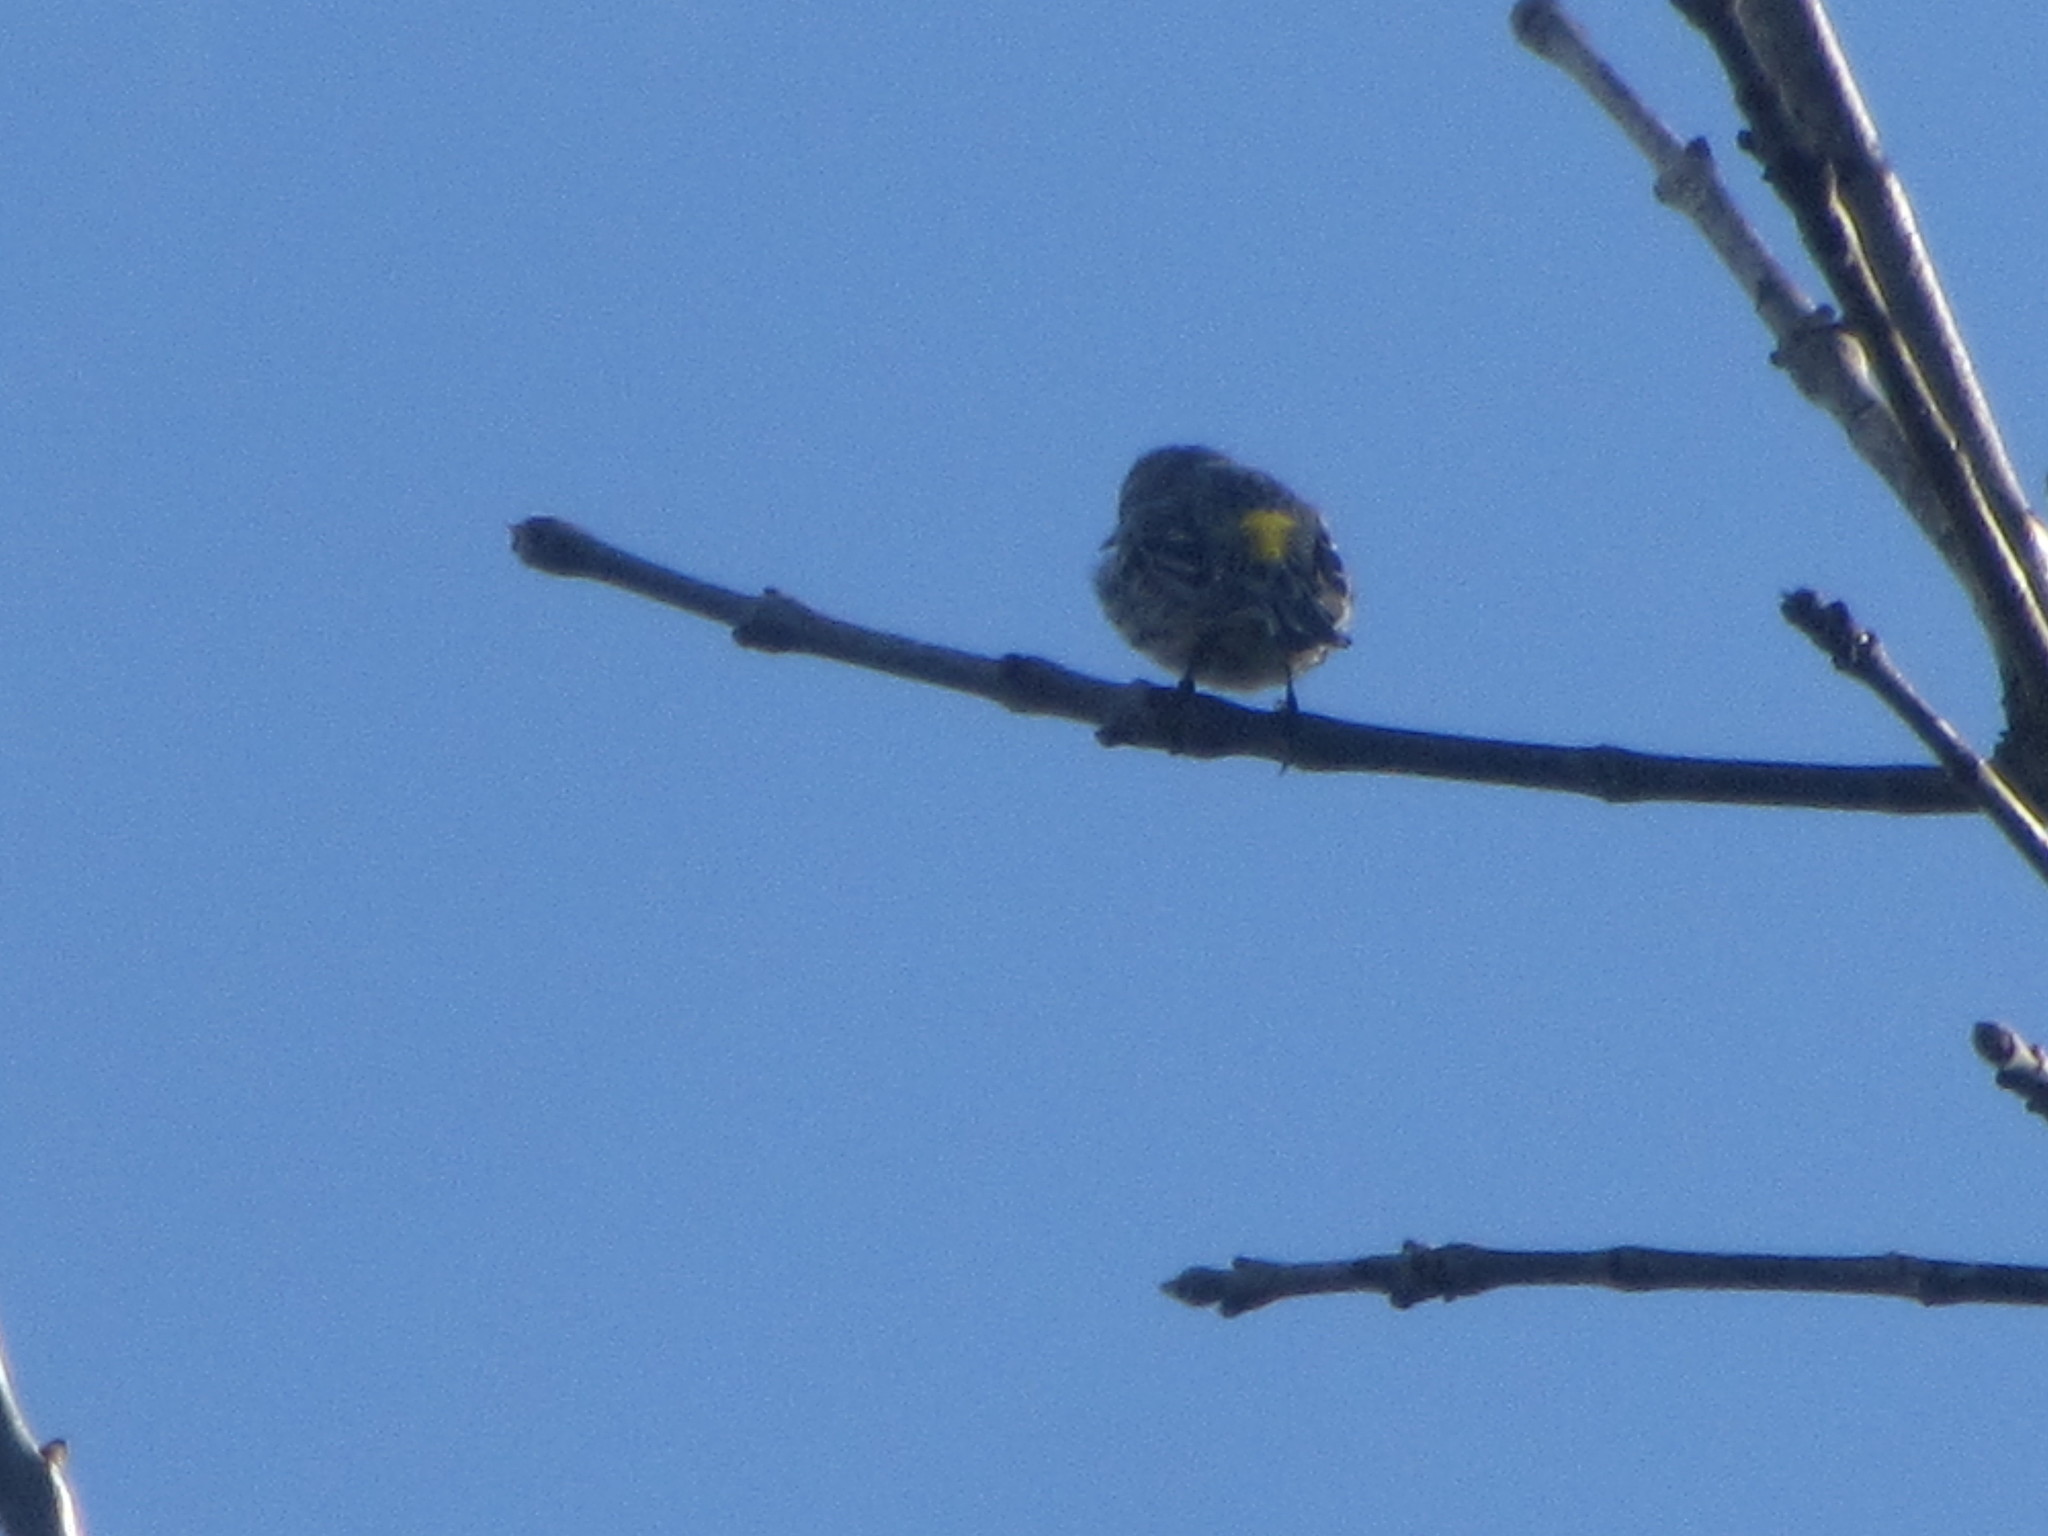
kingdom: Animalia
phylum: Chordata
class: Aves
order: Passeriformes
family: Parulidae
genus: Setophaga
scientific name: Setophaga coronata
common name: Myrtle warbler
